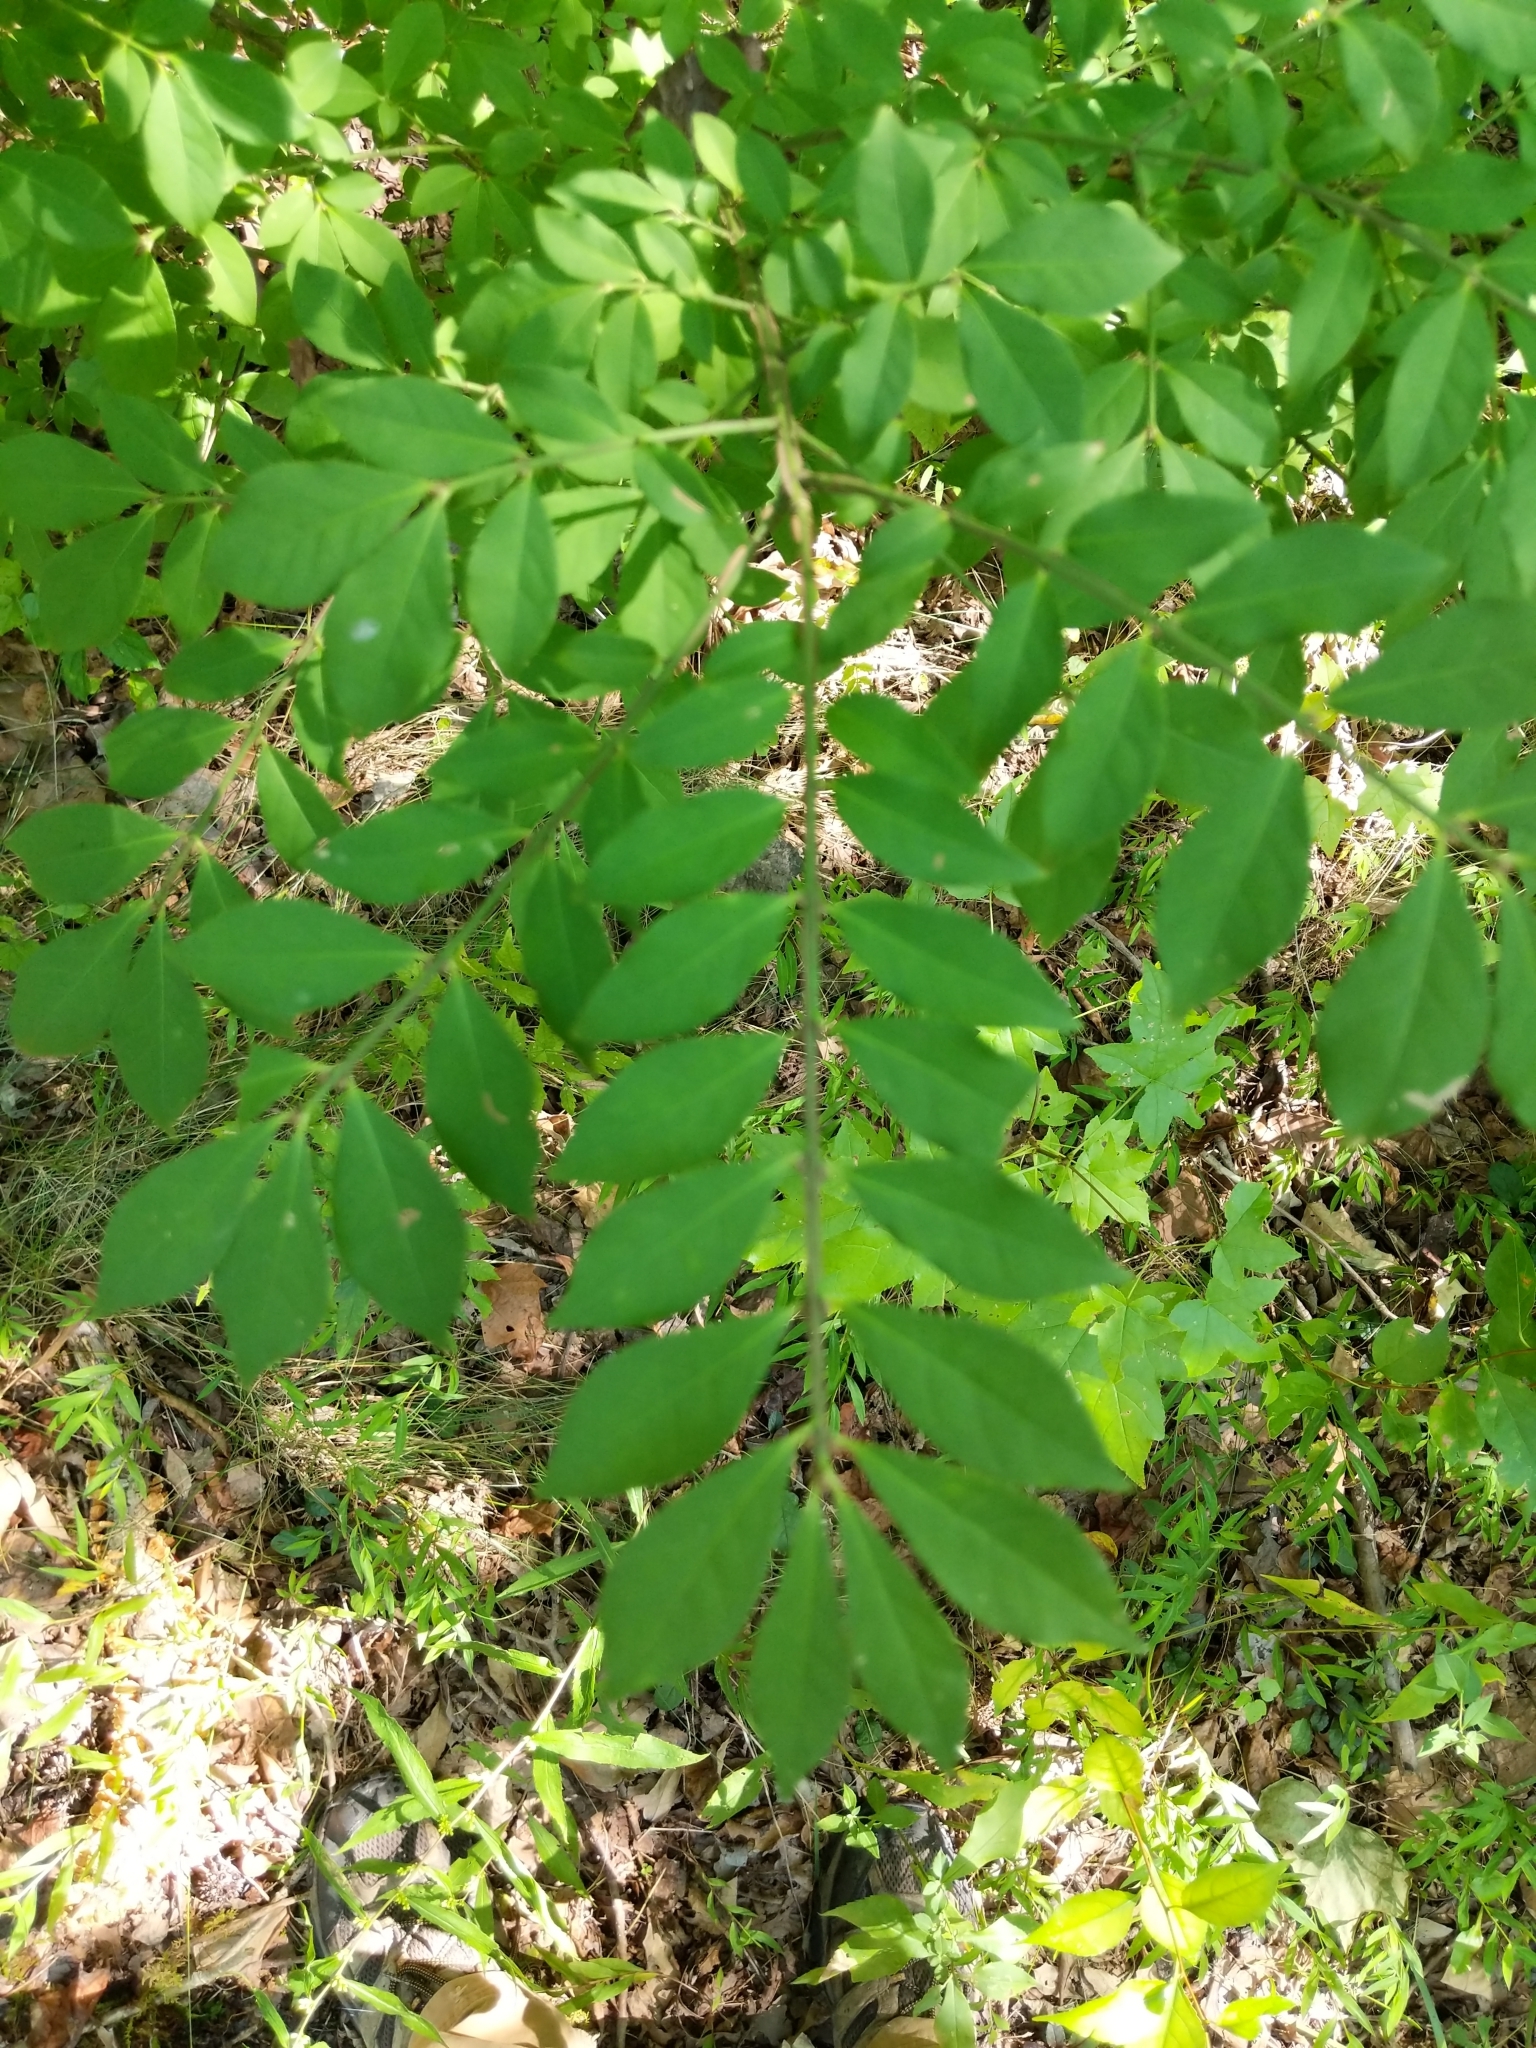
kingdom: Plantae
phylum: Tracheophyta
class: Magnoliopsida
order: Celastrales
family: Celastraceae
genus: Euonymus
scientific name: Euonymus alatus
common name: Winged euonymus
